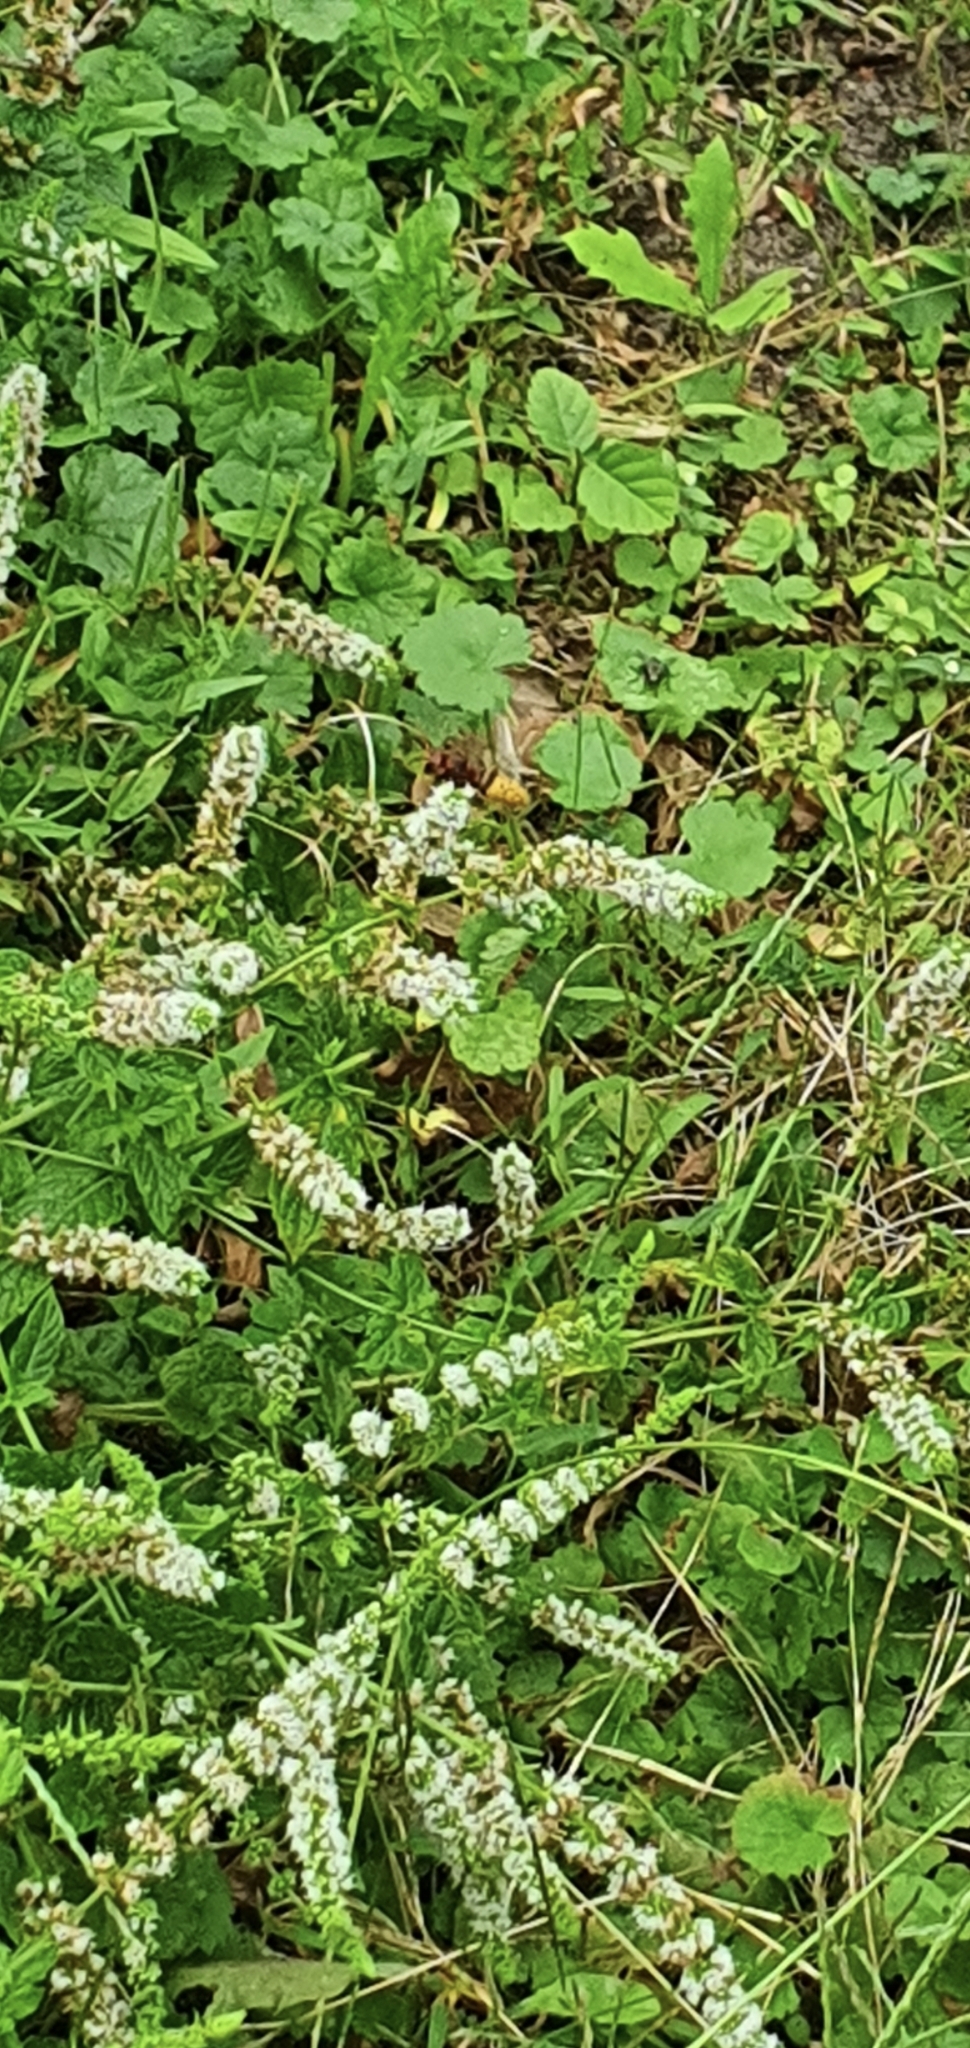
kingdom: Animalia
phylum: Arthropoda
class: Insecta
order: Hymenoptera
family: Vespidae
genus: Vespa
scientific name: Vespa crabro
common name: Hornet
